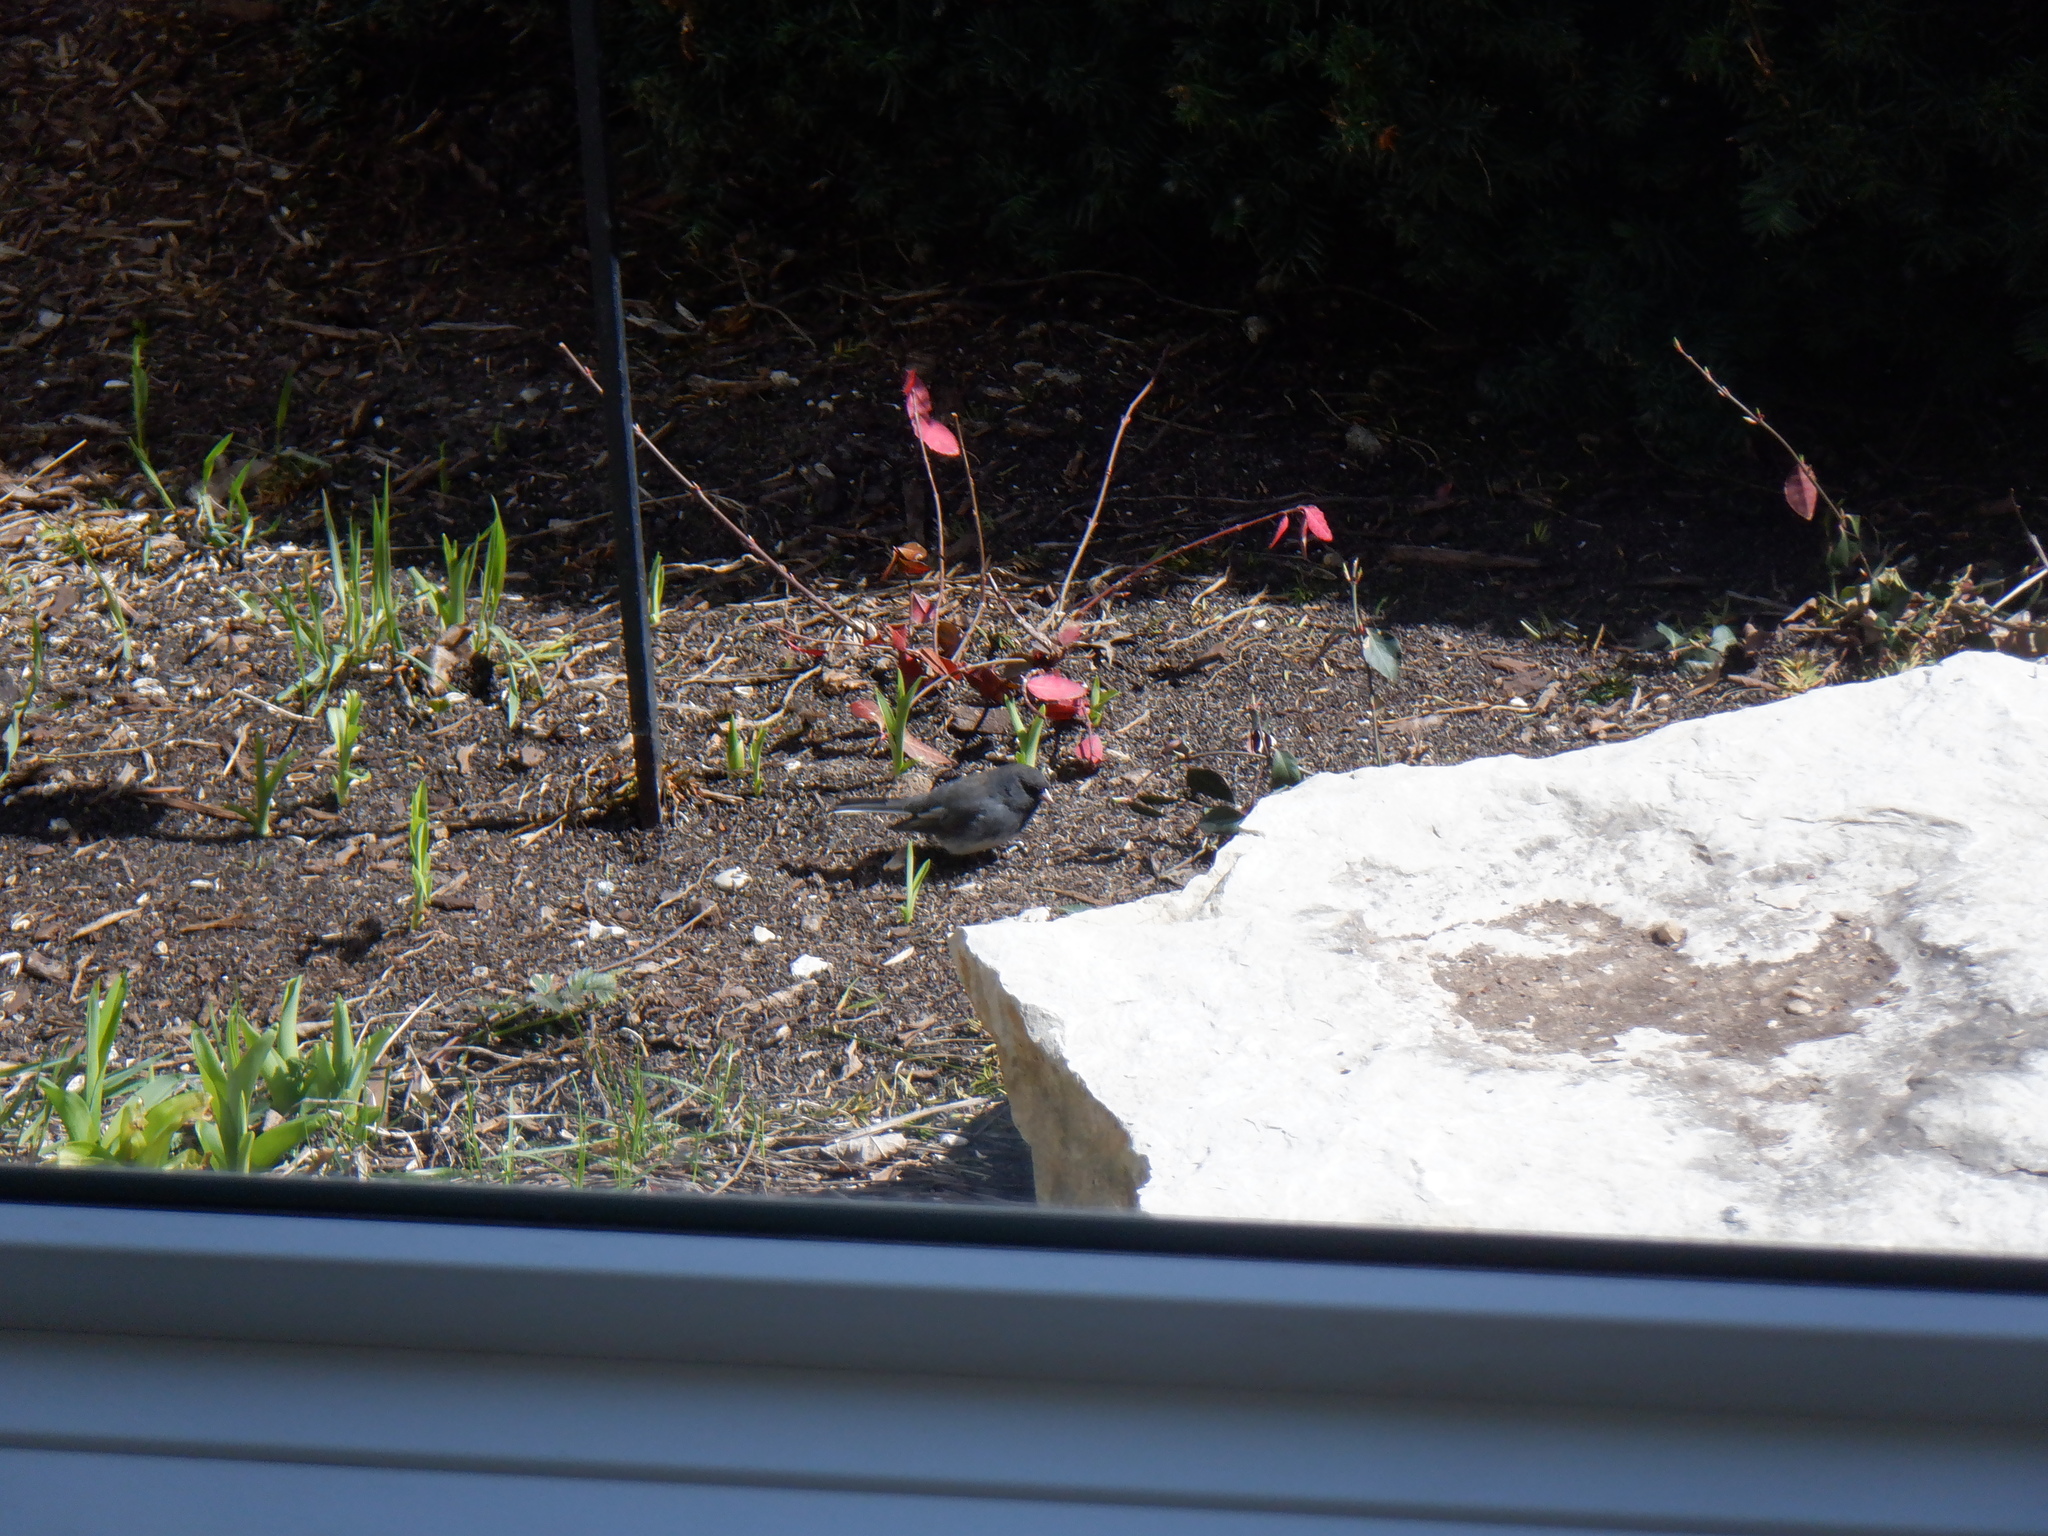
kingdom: Animalia
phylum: Chordata
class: Aves
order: Passeriformes
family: Passerellidae
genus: Junco
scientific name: Junco hyemalis
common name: Dark-eyed junco
